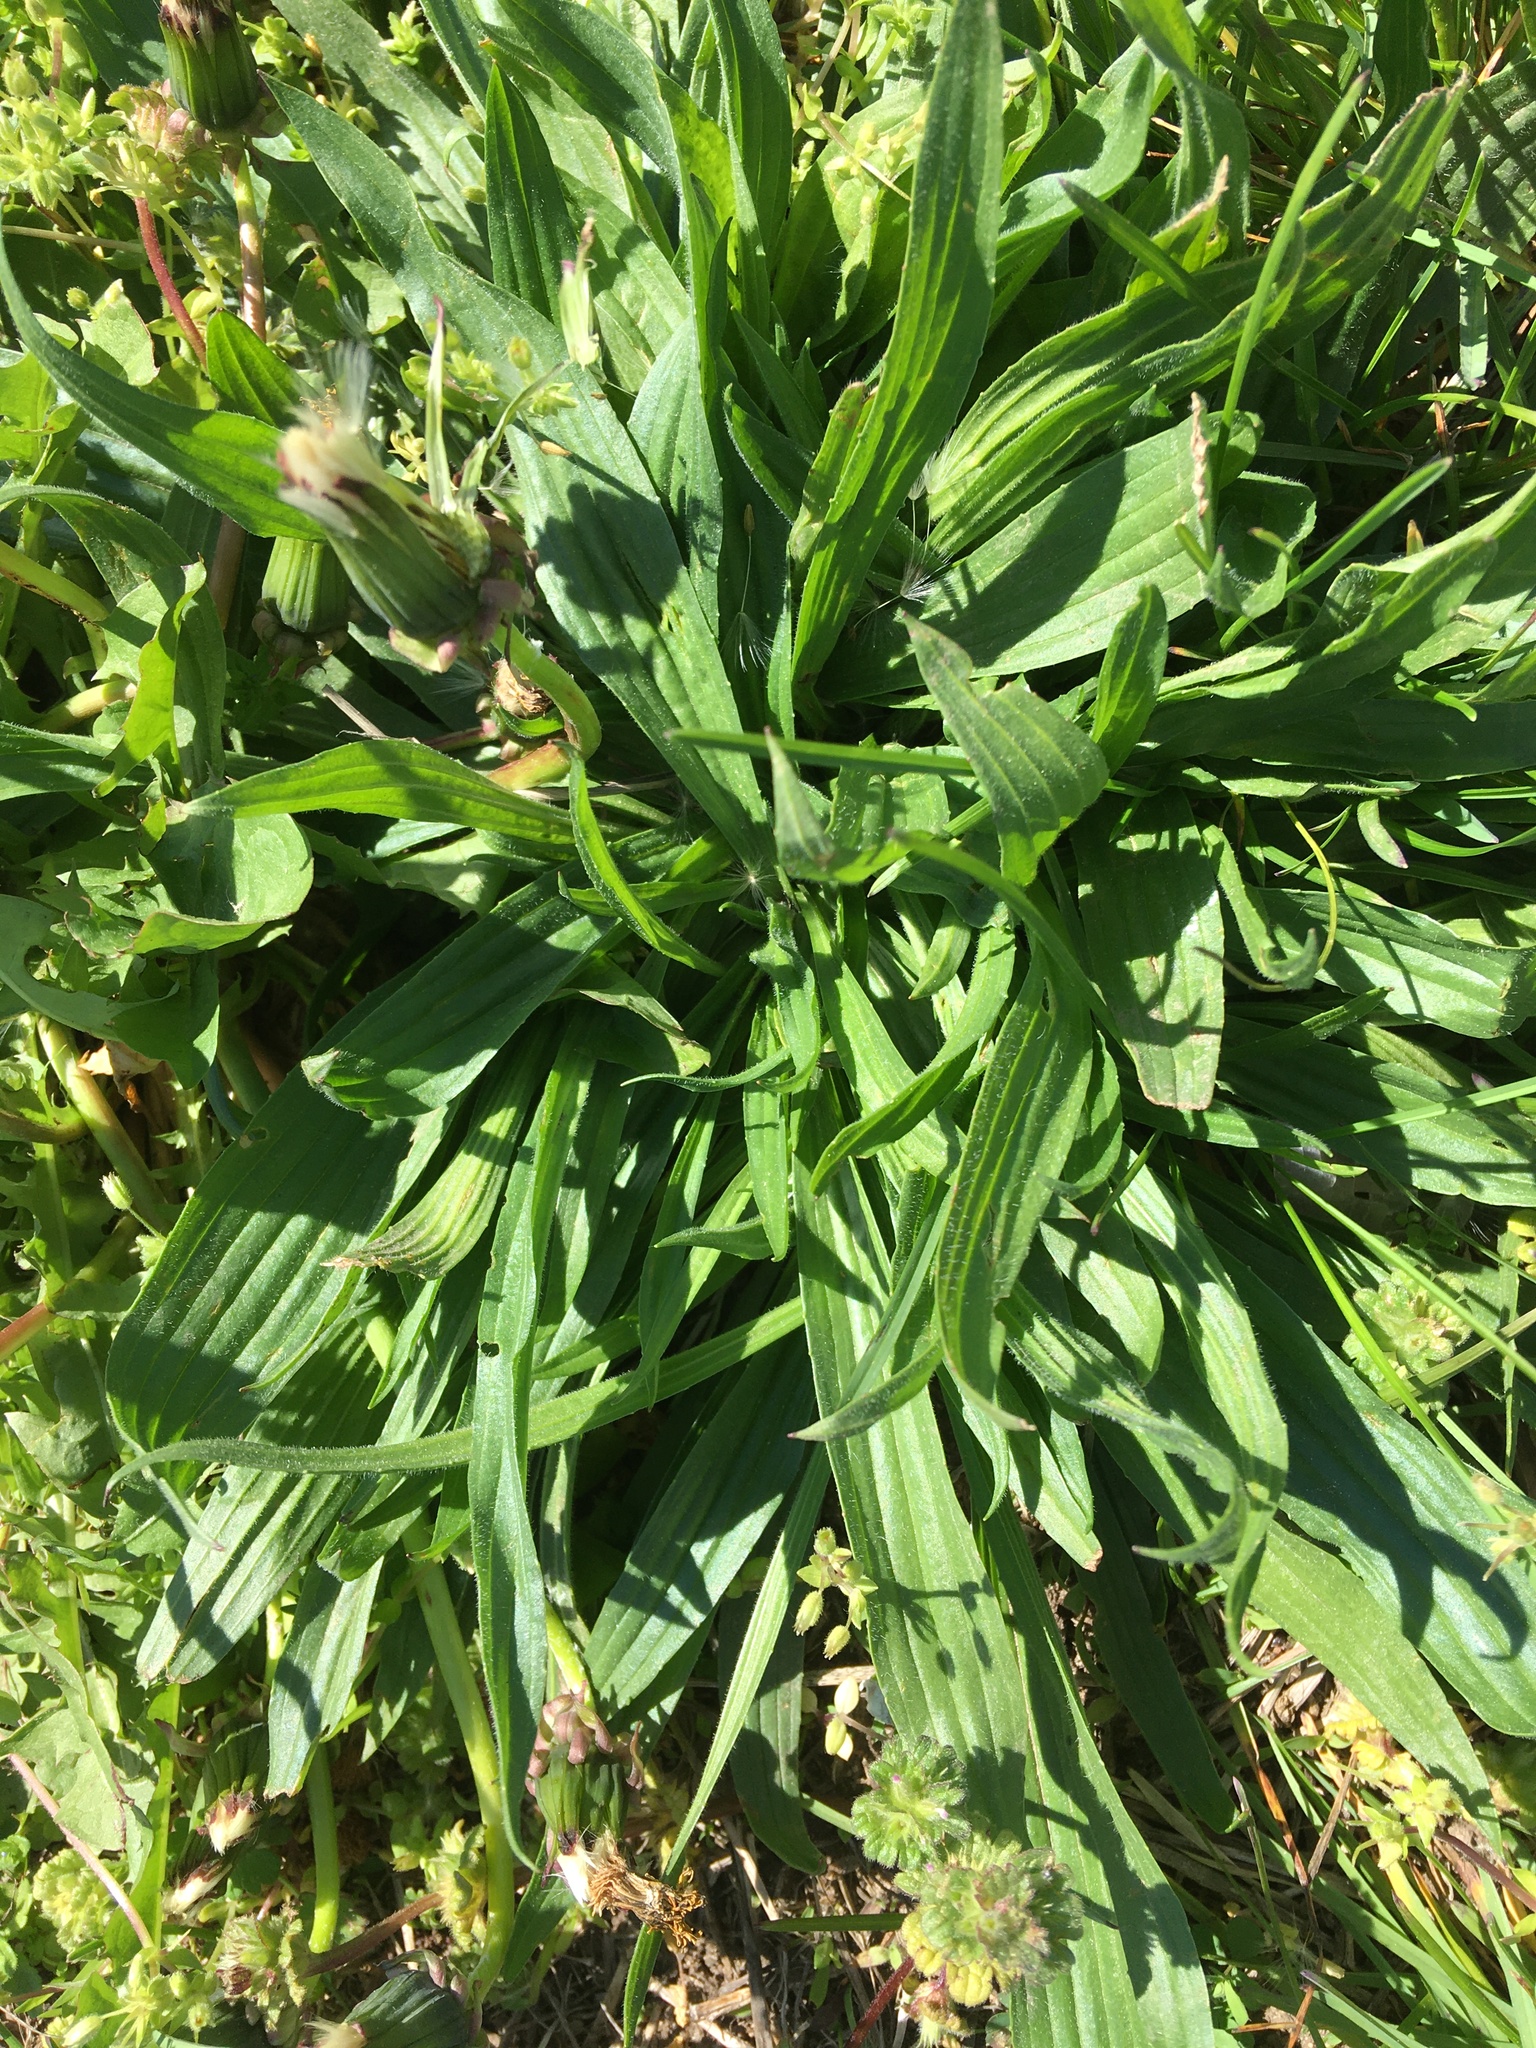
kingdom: Plantae
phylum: Tracheophyta
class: Magnoliopsida
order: Lamiales
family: Plantaginaceae
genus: Plantago
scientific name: Plantago lanceolata
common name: Ribwort plantain
